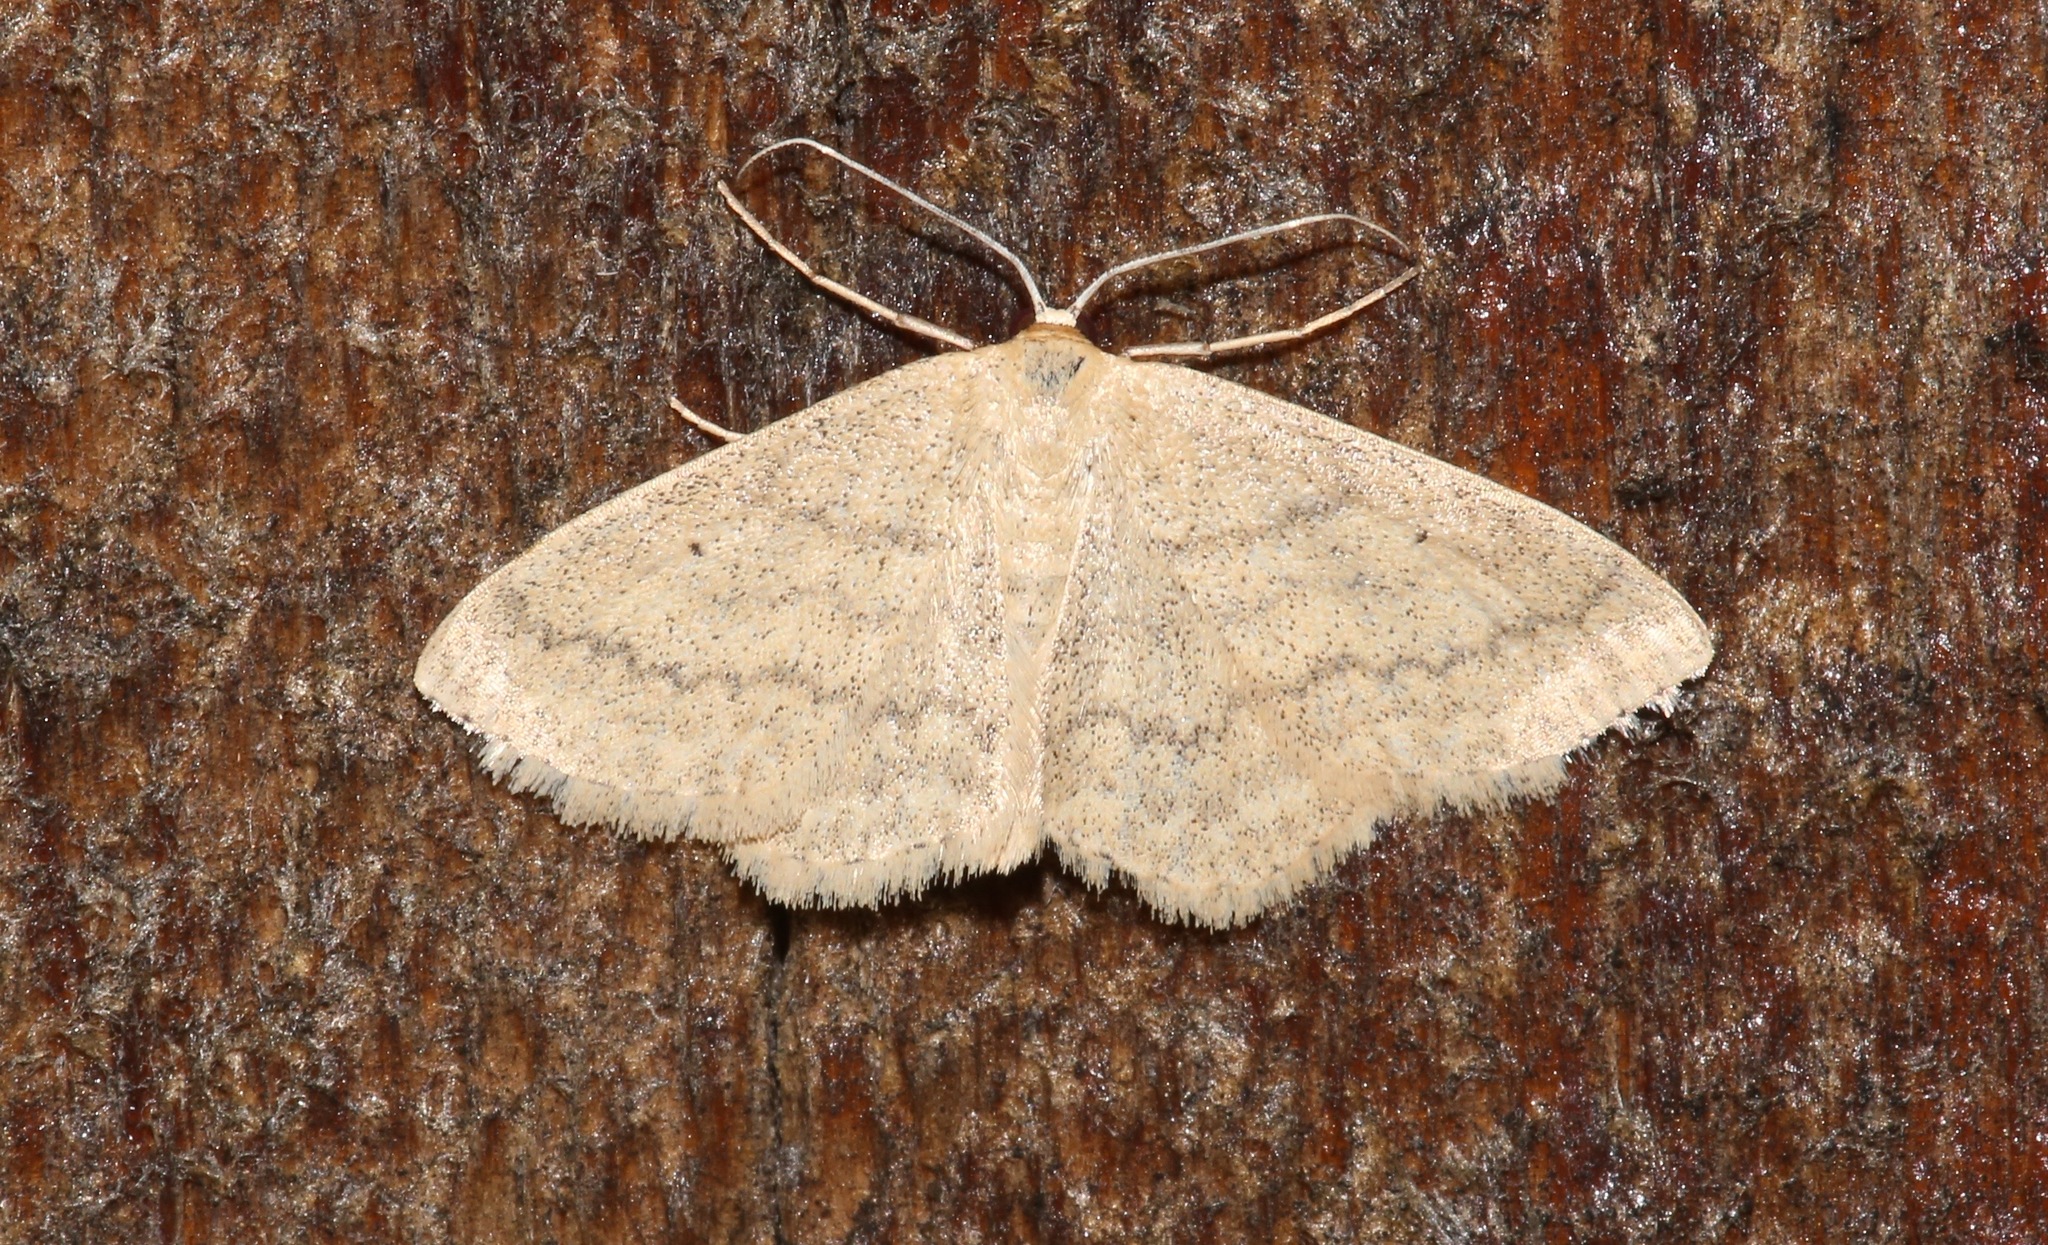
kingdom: Animalia
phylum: Arthropoda
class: Insecta
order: Lepidoptera
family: Geometridae
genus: Scopula
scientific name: Scopula inductata
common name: Soft-lined wave
